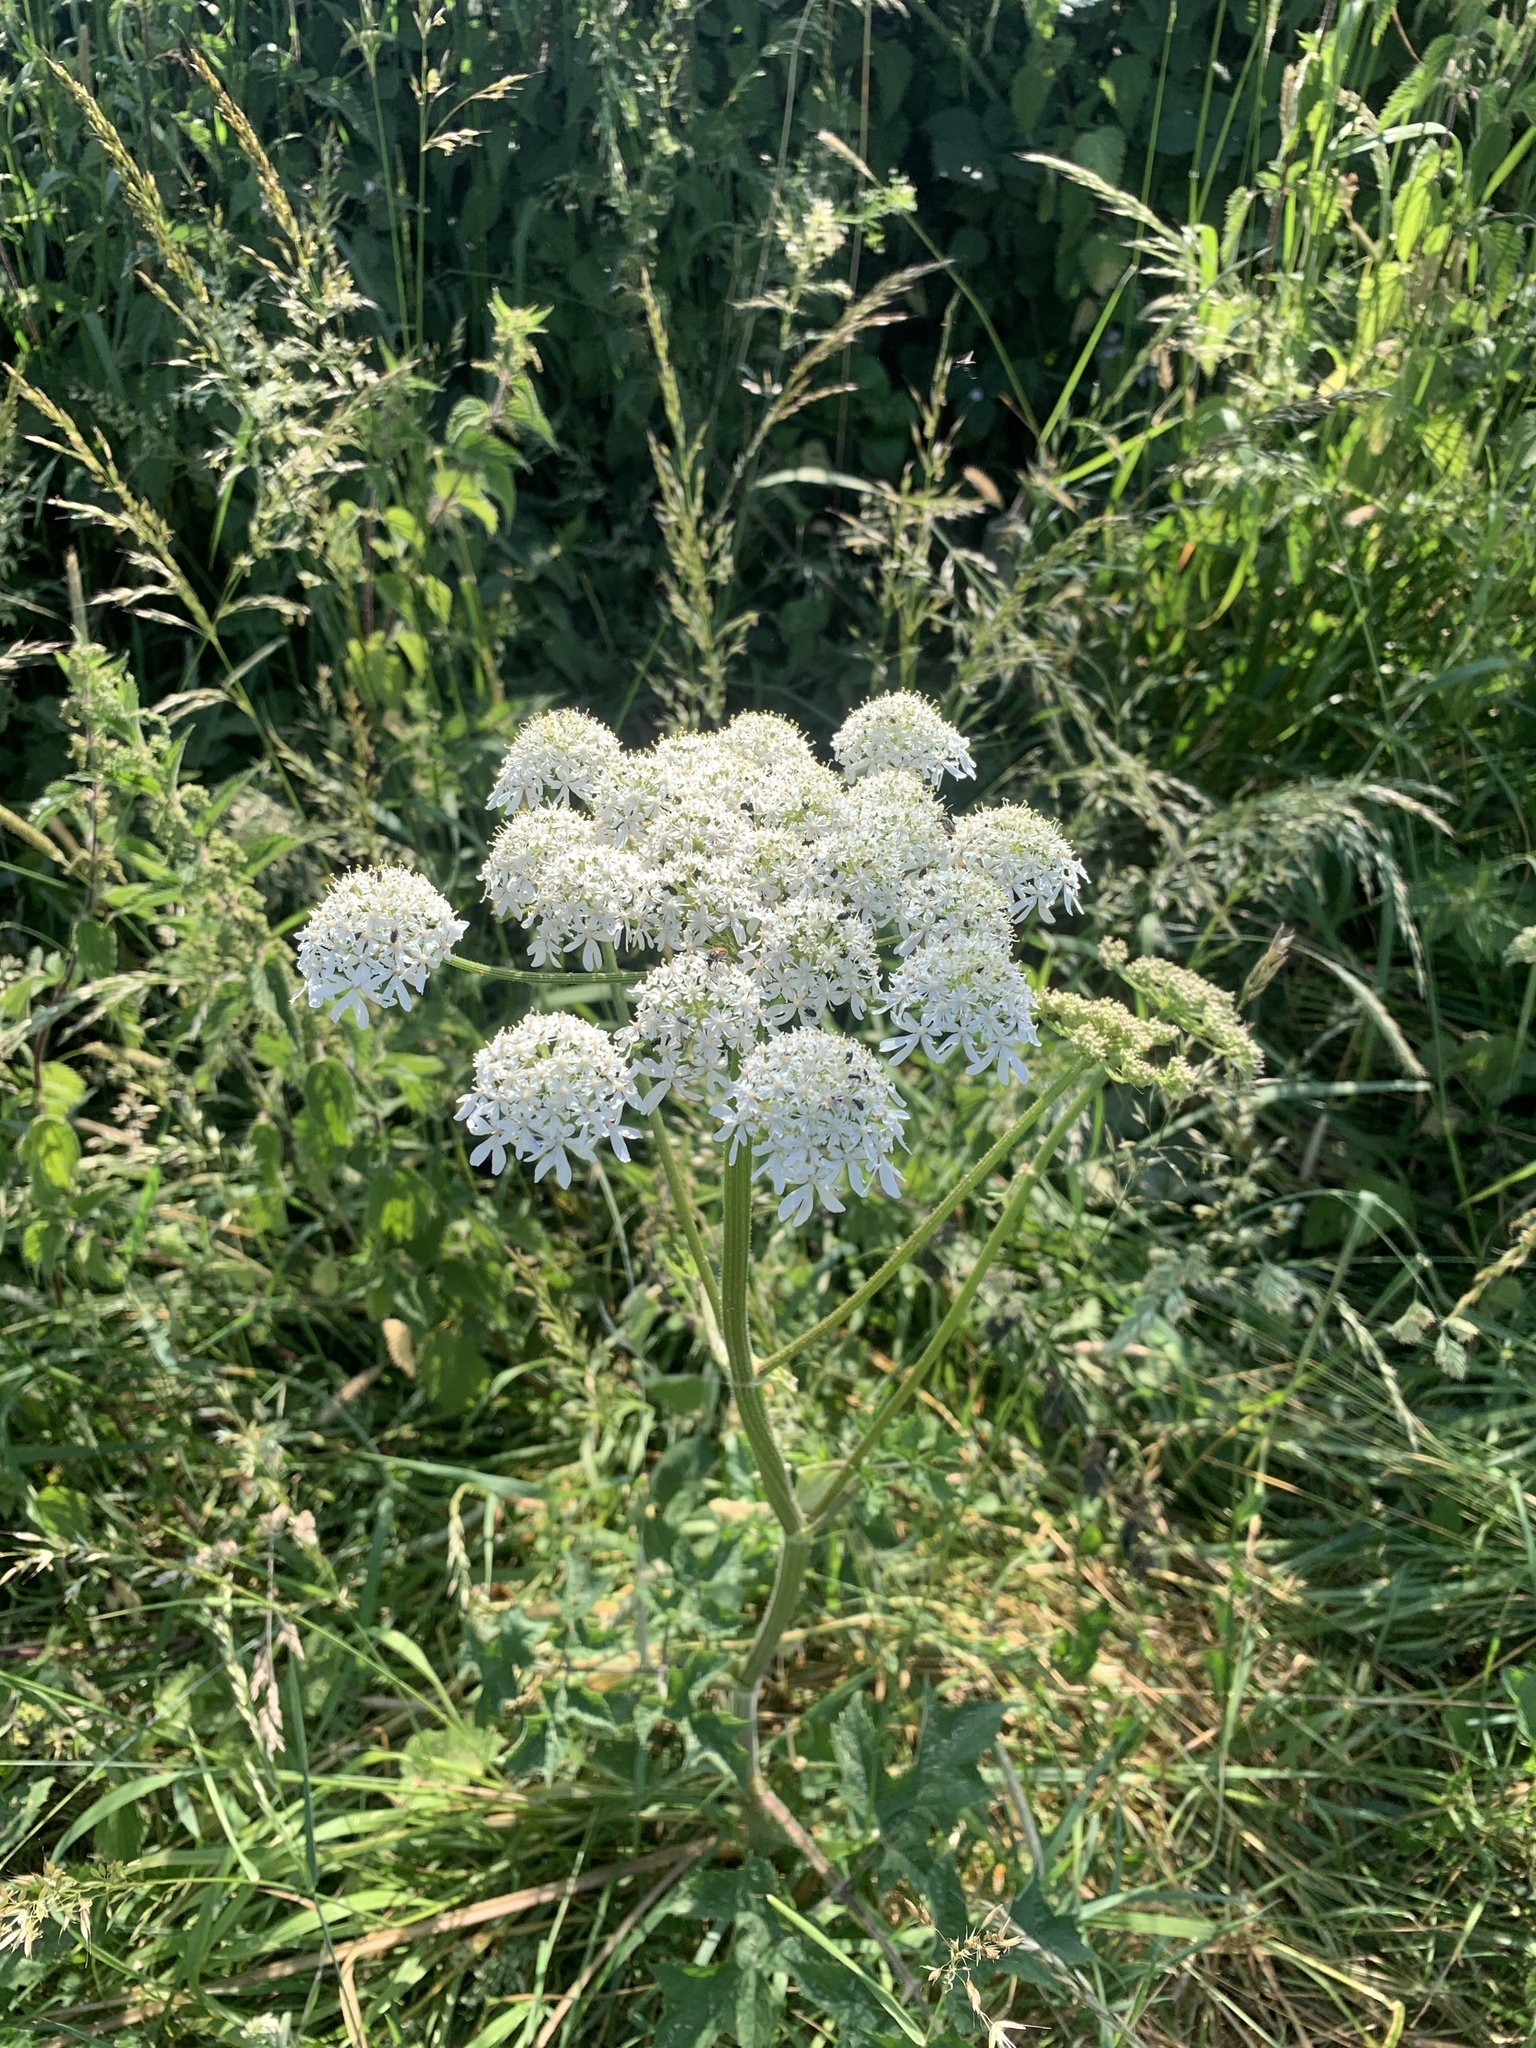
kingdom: Plantae
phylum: Tracheophyta
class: Magnoliopsida
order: Apiales
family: Apiaceae
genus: Heracleum
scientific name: Heracleum sphondylium
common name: Hogweed
